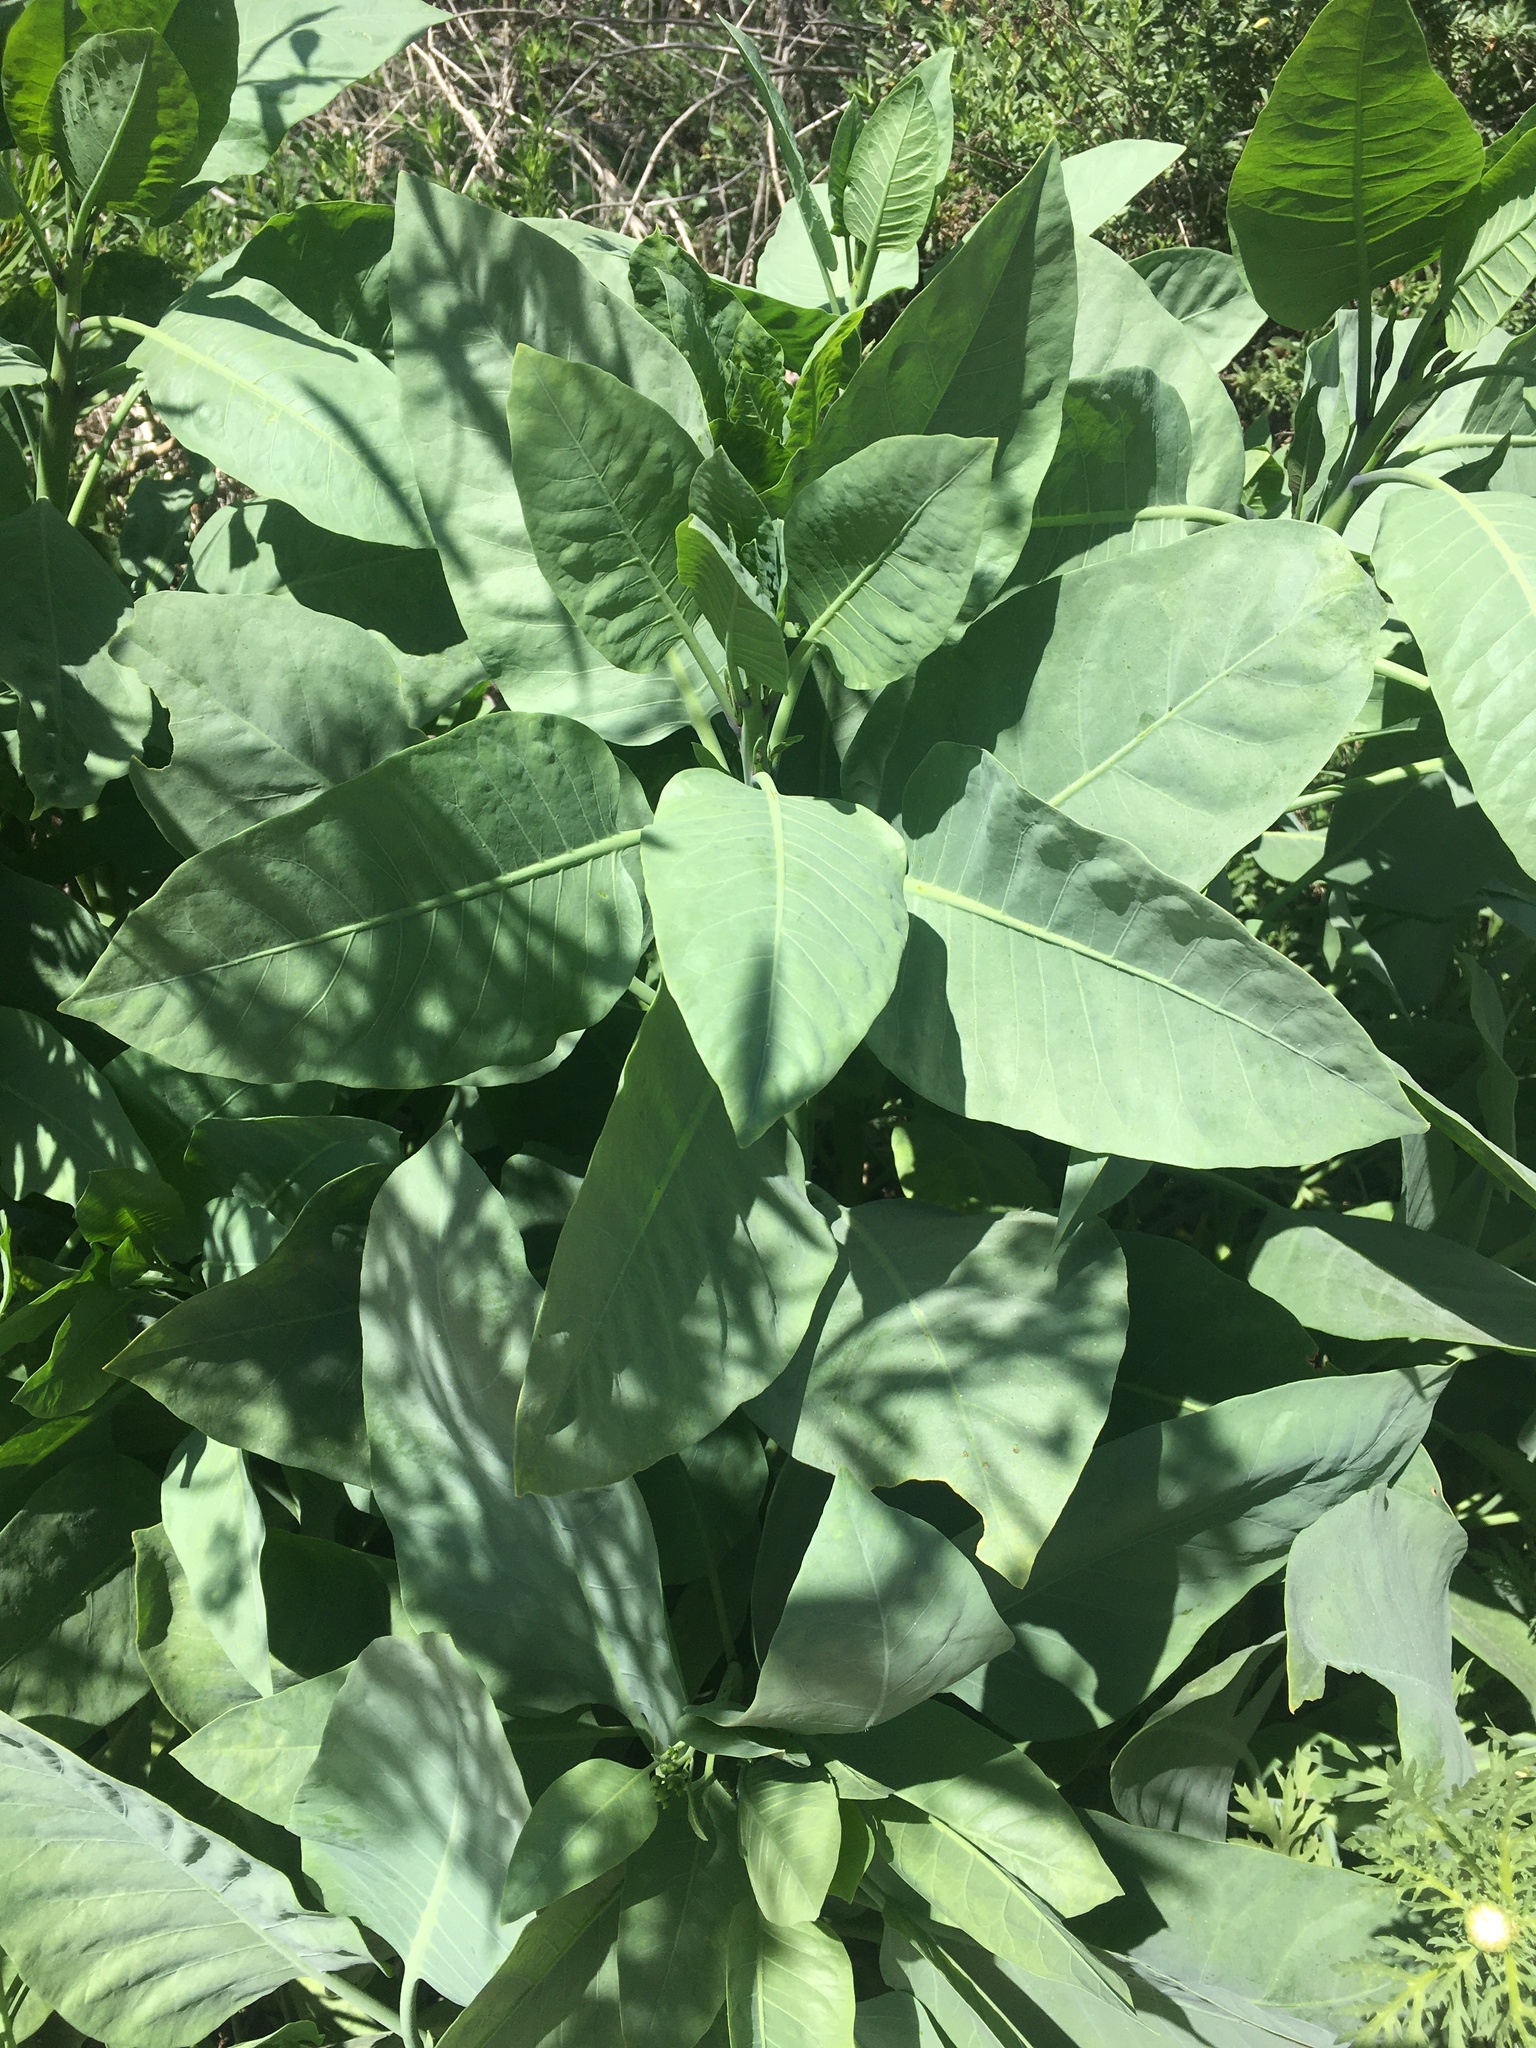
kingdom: Plantae
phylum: Tracheophyta
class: Magnoliopsida
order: Solanales
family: Solanaceae
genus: Nicotiana
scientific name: Nicotiana glauca
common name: Tree tobacco
